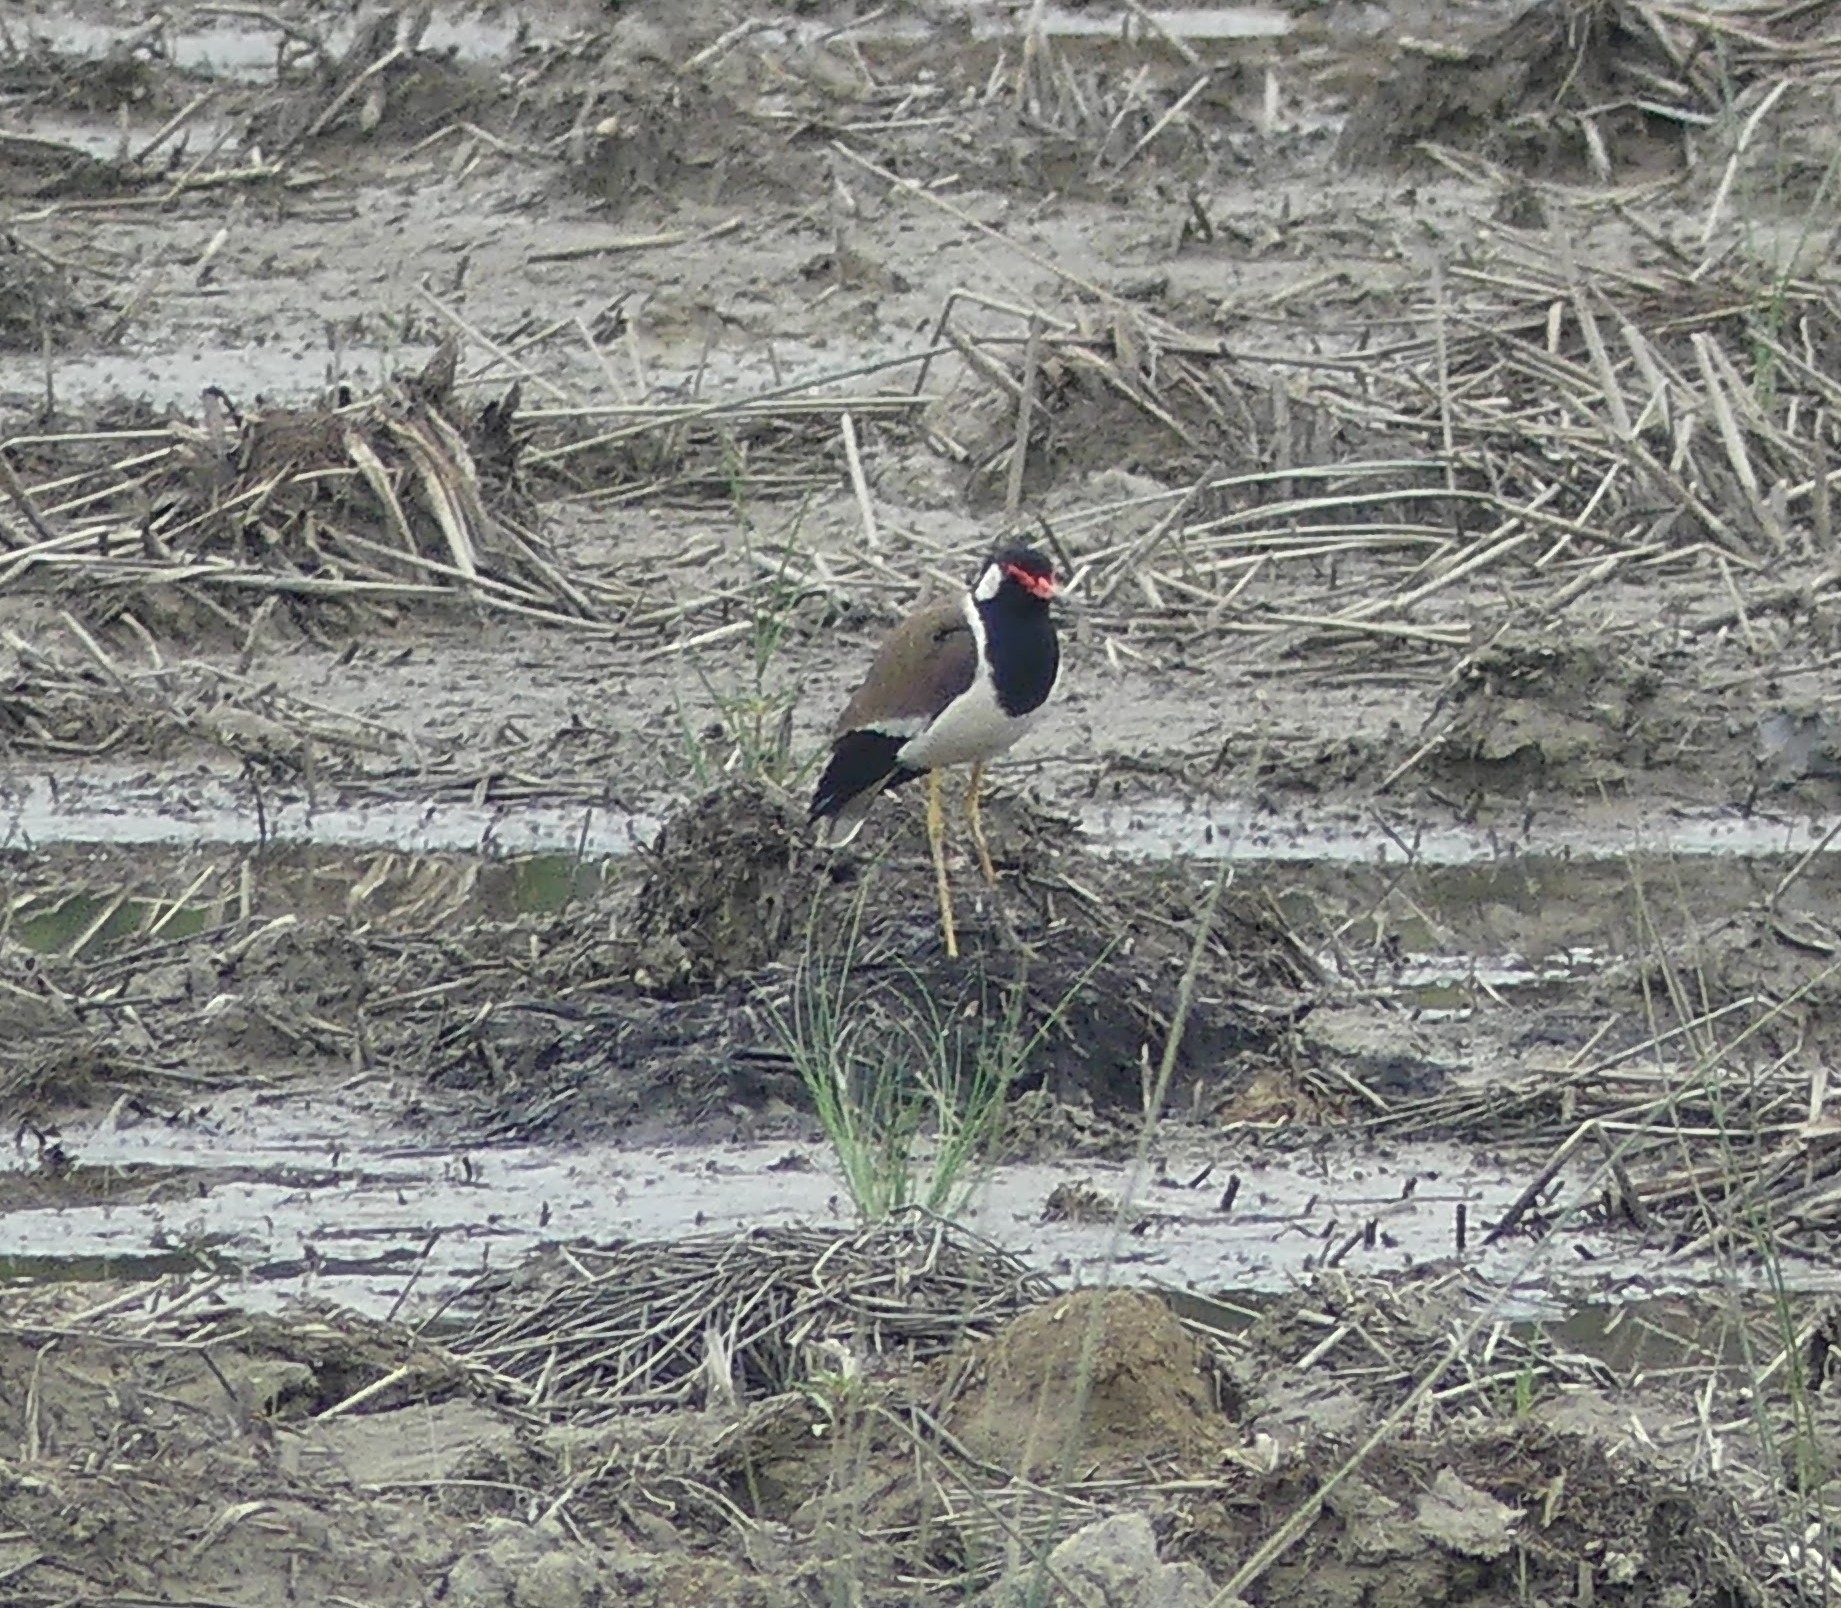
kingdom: Animalia
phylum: Chordata
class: Aves
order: Charadriiformes
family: Charadriidae
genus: Vanellus
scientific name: Vanellus indicus
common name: Red-wattled lapwing
